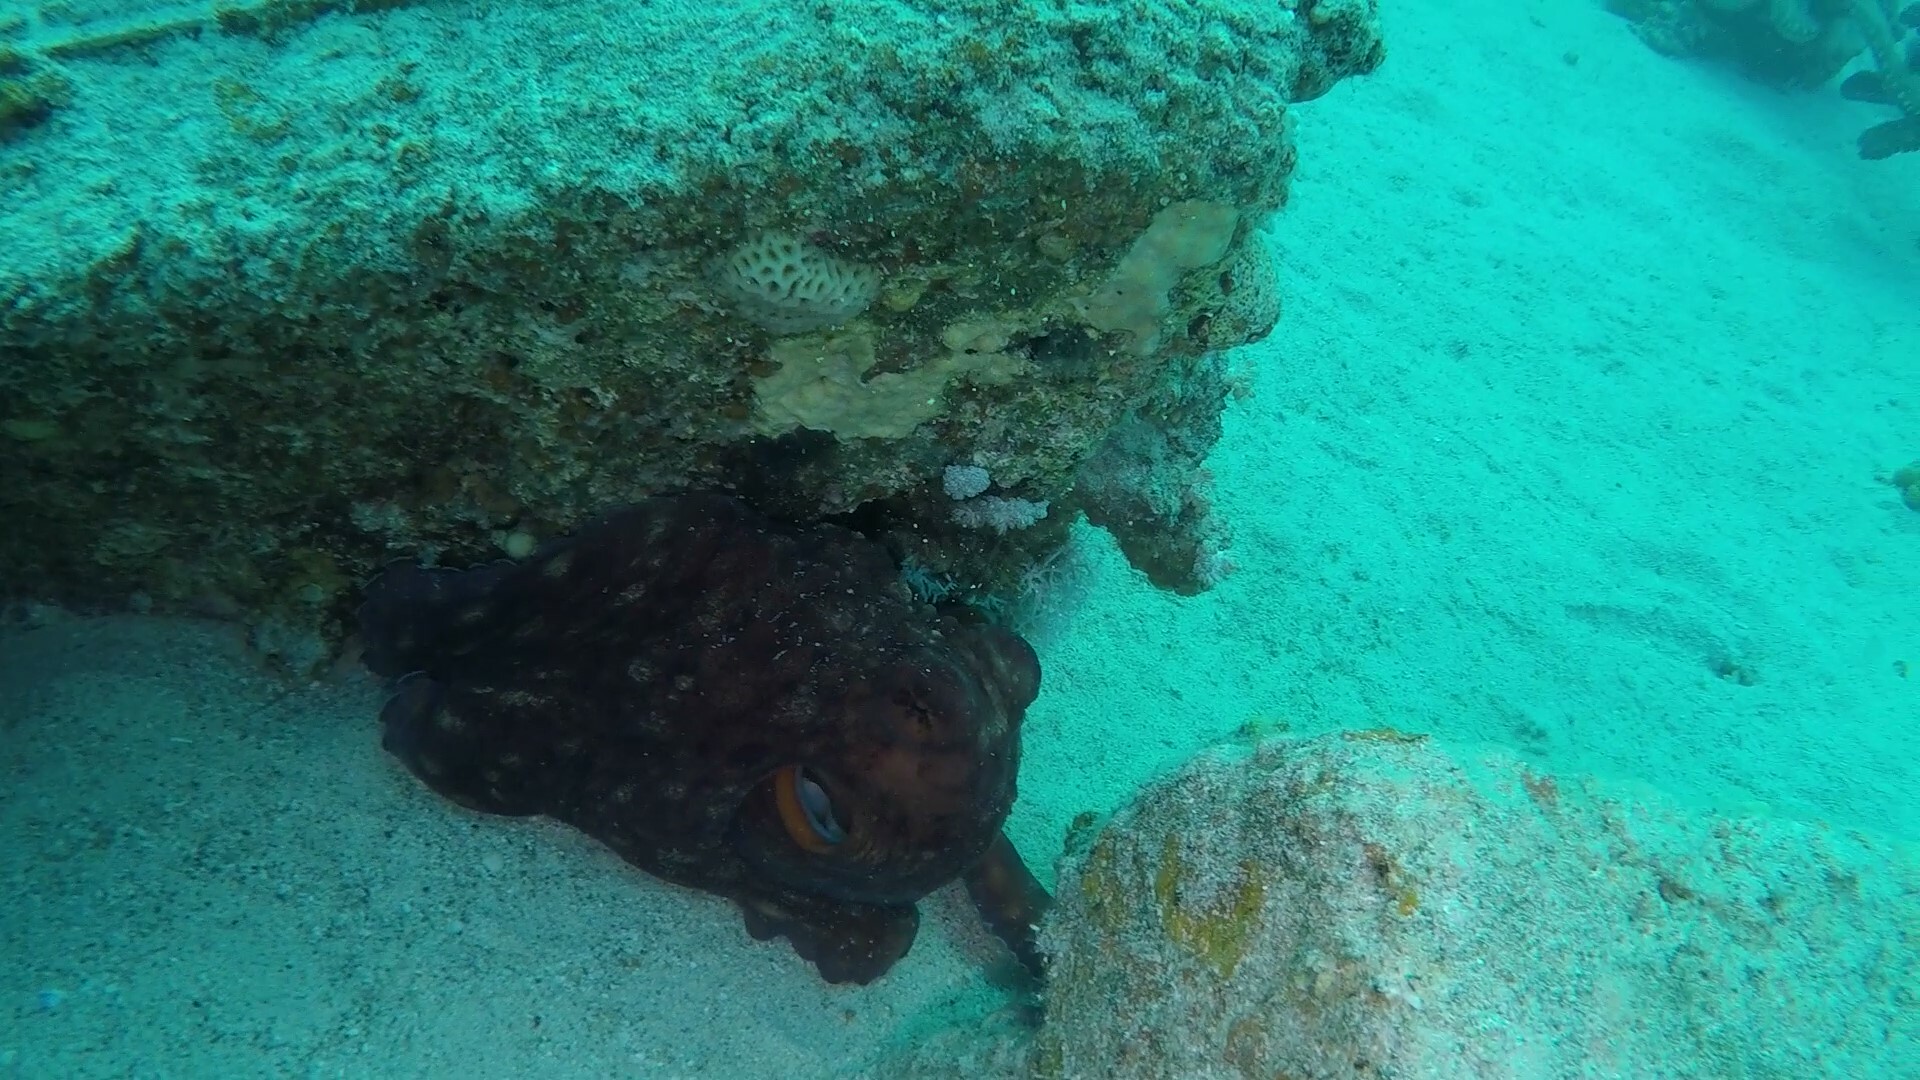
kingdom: Animalia
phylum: Mollusca
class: Cephalopoda
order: Octopoda
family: Octopodidae
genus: Octopus
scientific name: Octopus cyanea
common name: Cyane's octopus
